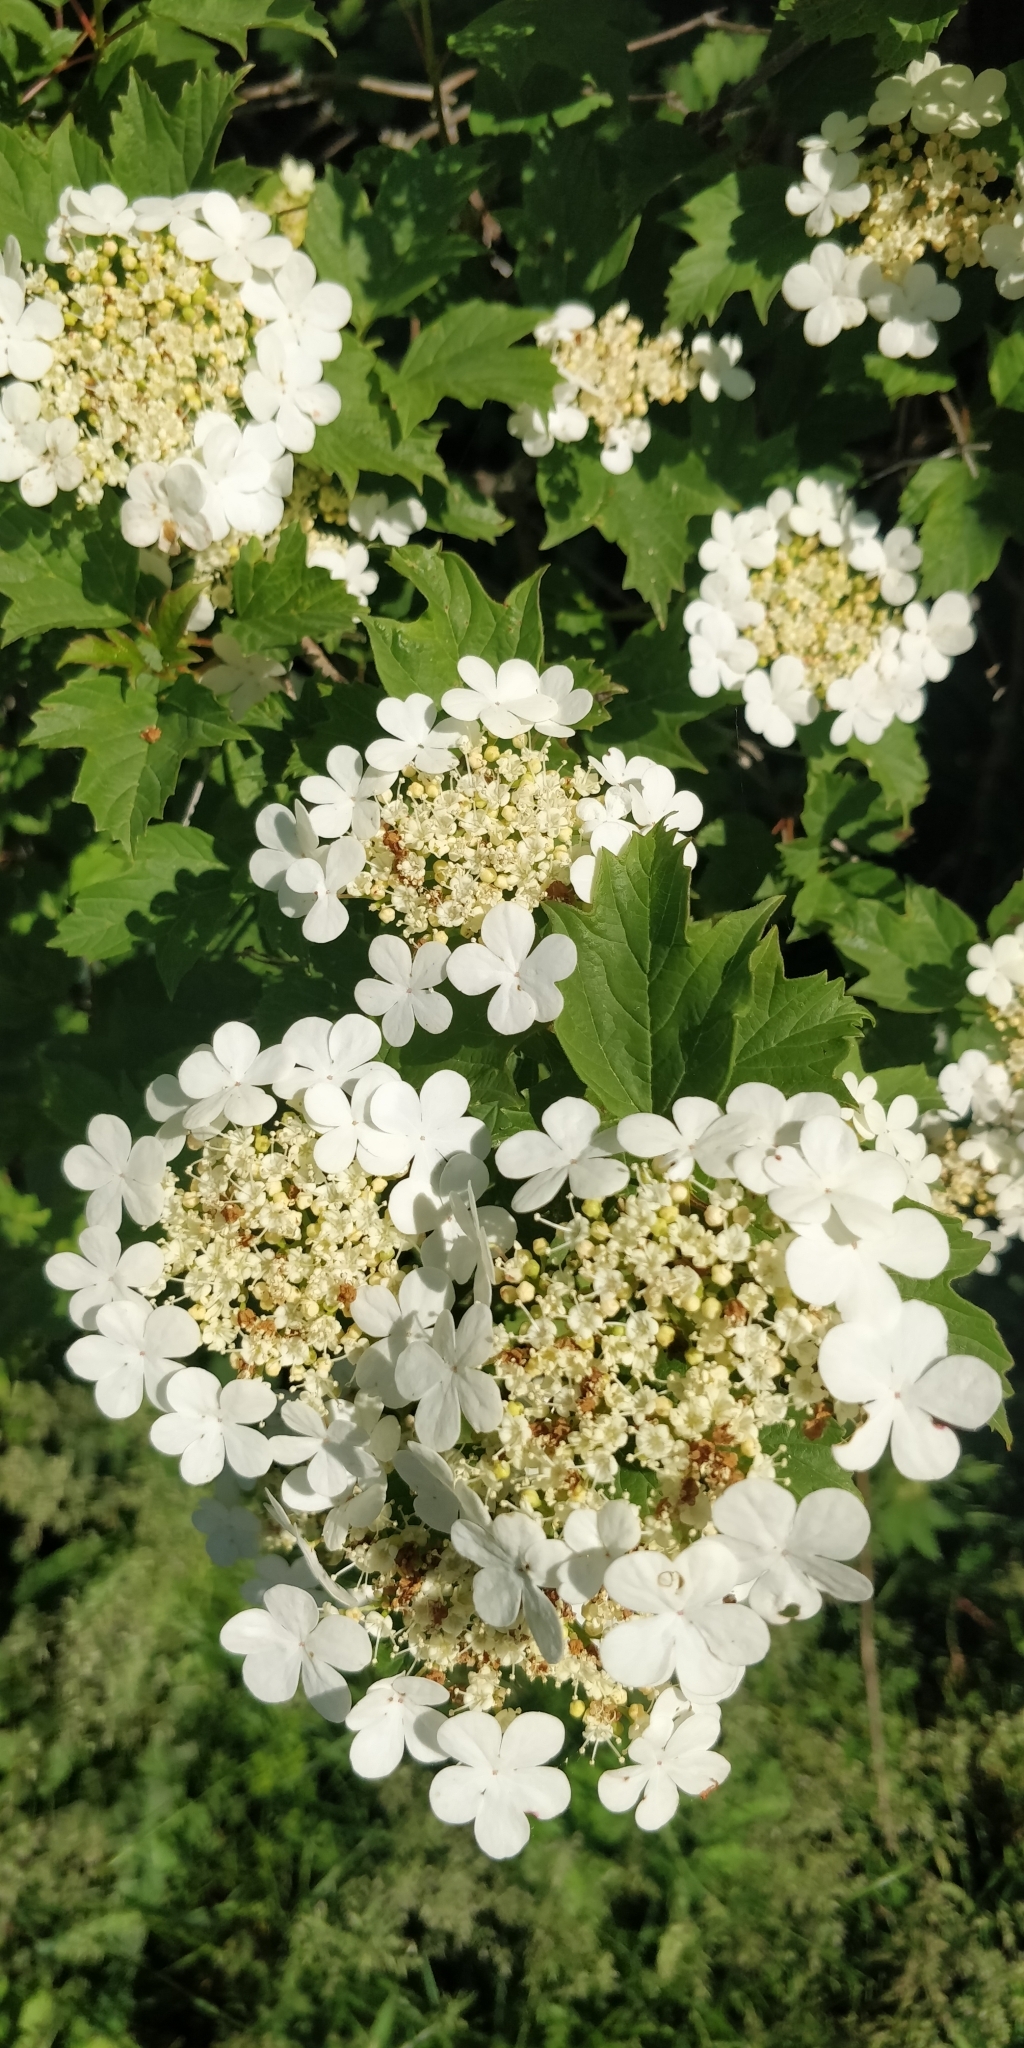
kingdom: Plantae
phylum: Tracheophyta
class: Magnoliopsida
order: Dipsacales
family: Viburnaceae
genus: Viburnum
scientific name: Viburnum opulus
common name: Guelder-rose
